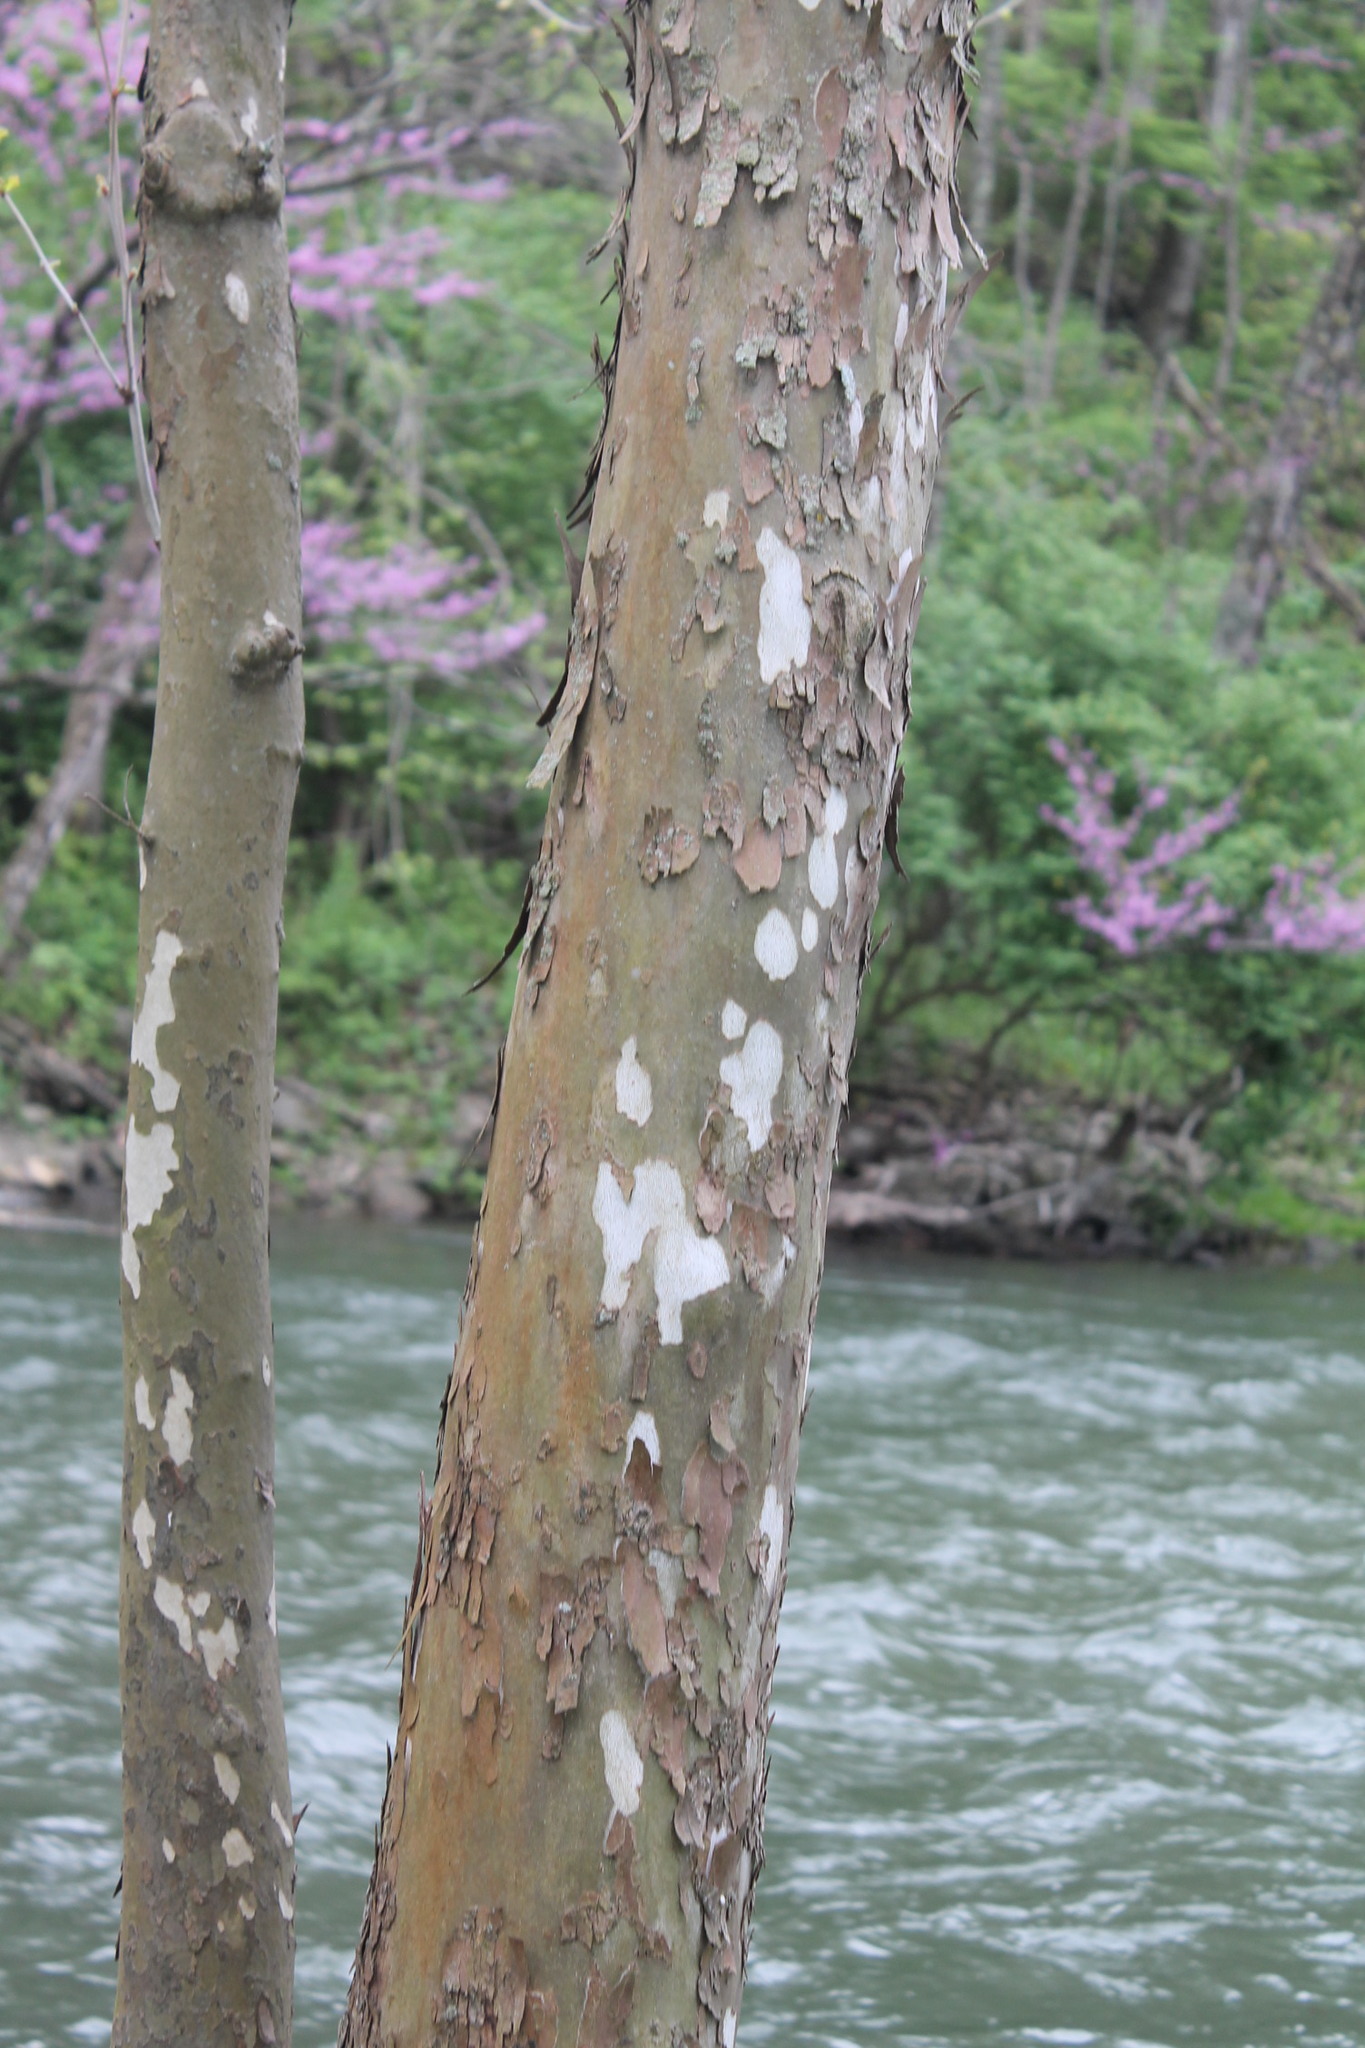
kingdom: Plantae
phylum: Tracheophyta
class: Magnoliopsida
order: Proteales
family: Platanaceae
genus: Platanus
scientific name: Platanus occidentalis
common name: American sycamore
